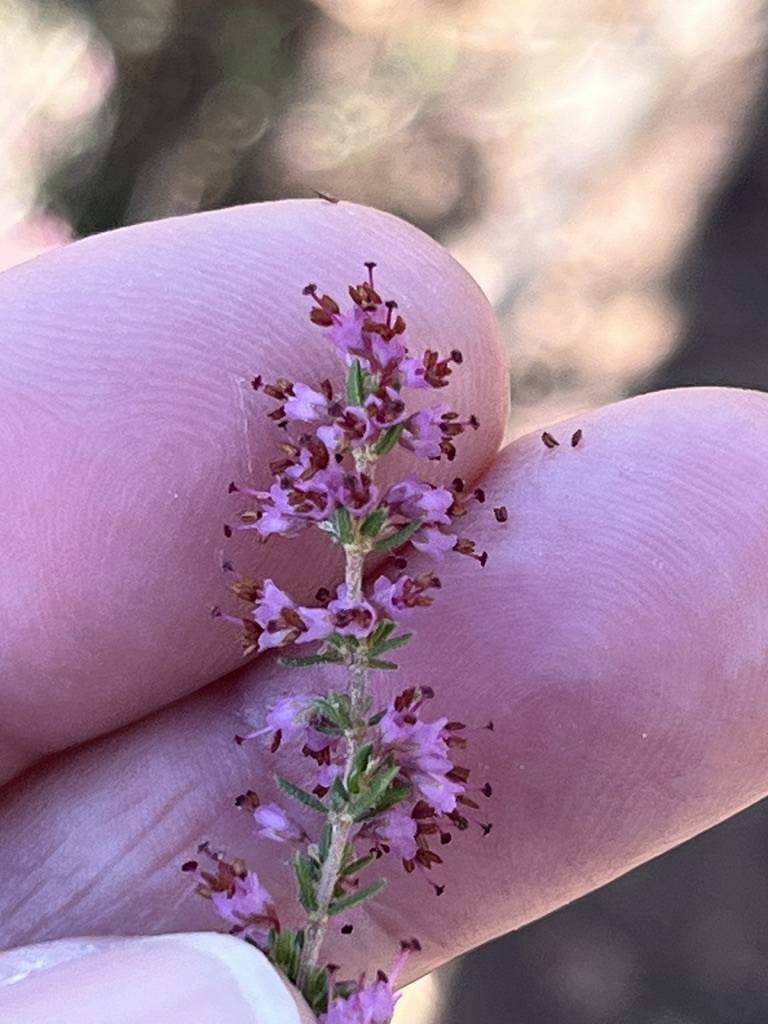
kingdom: Plantae
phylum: Tracheophyta
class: Magnoliopsida
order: Ericales
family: Ericaceae
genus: Erica
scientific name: Erica klotzschii
